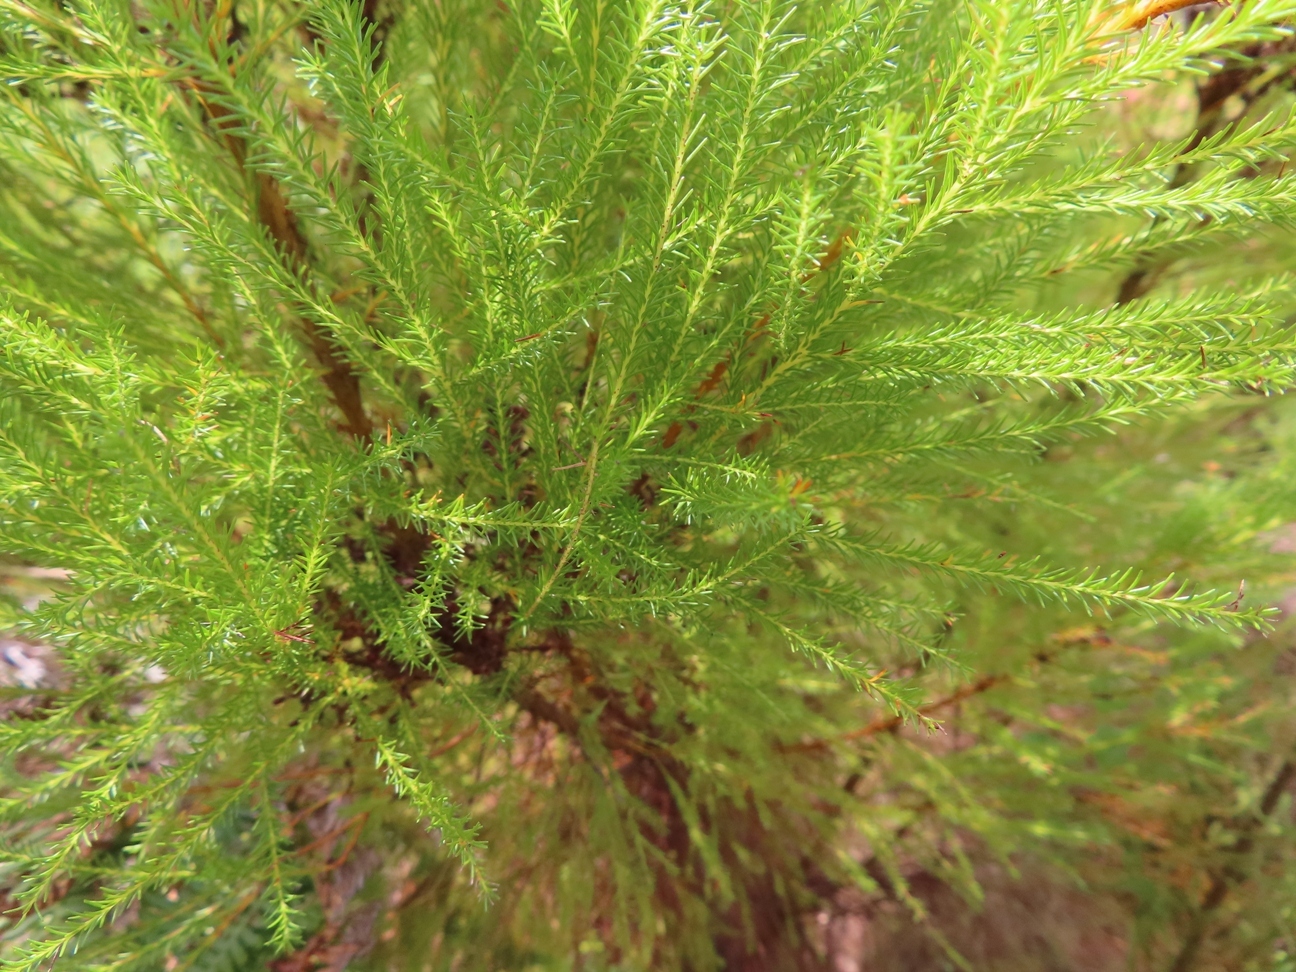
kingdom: Plantae
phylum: Tracheophyta
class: Magnoliopsida
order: Bruniales
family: Bruniaceae
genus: Berzelia
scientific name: Berzelia lanuginosa
